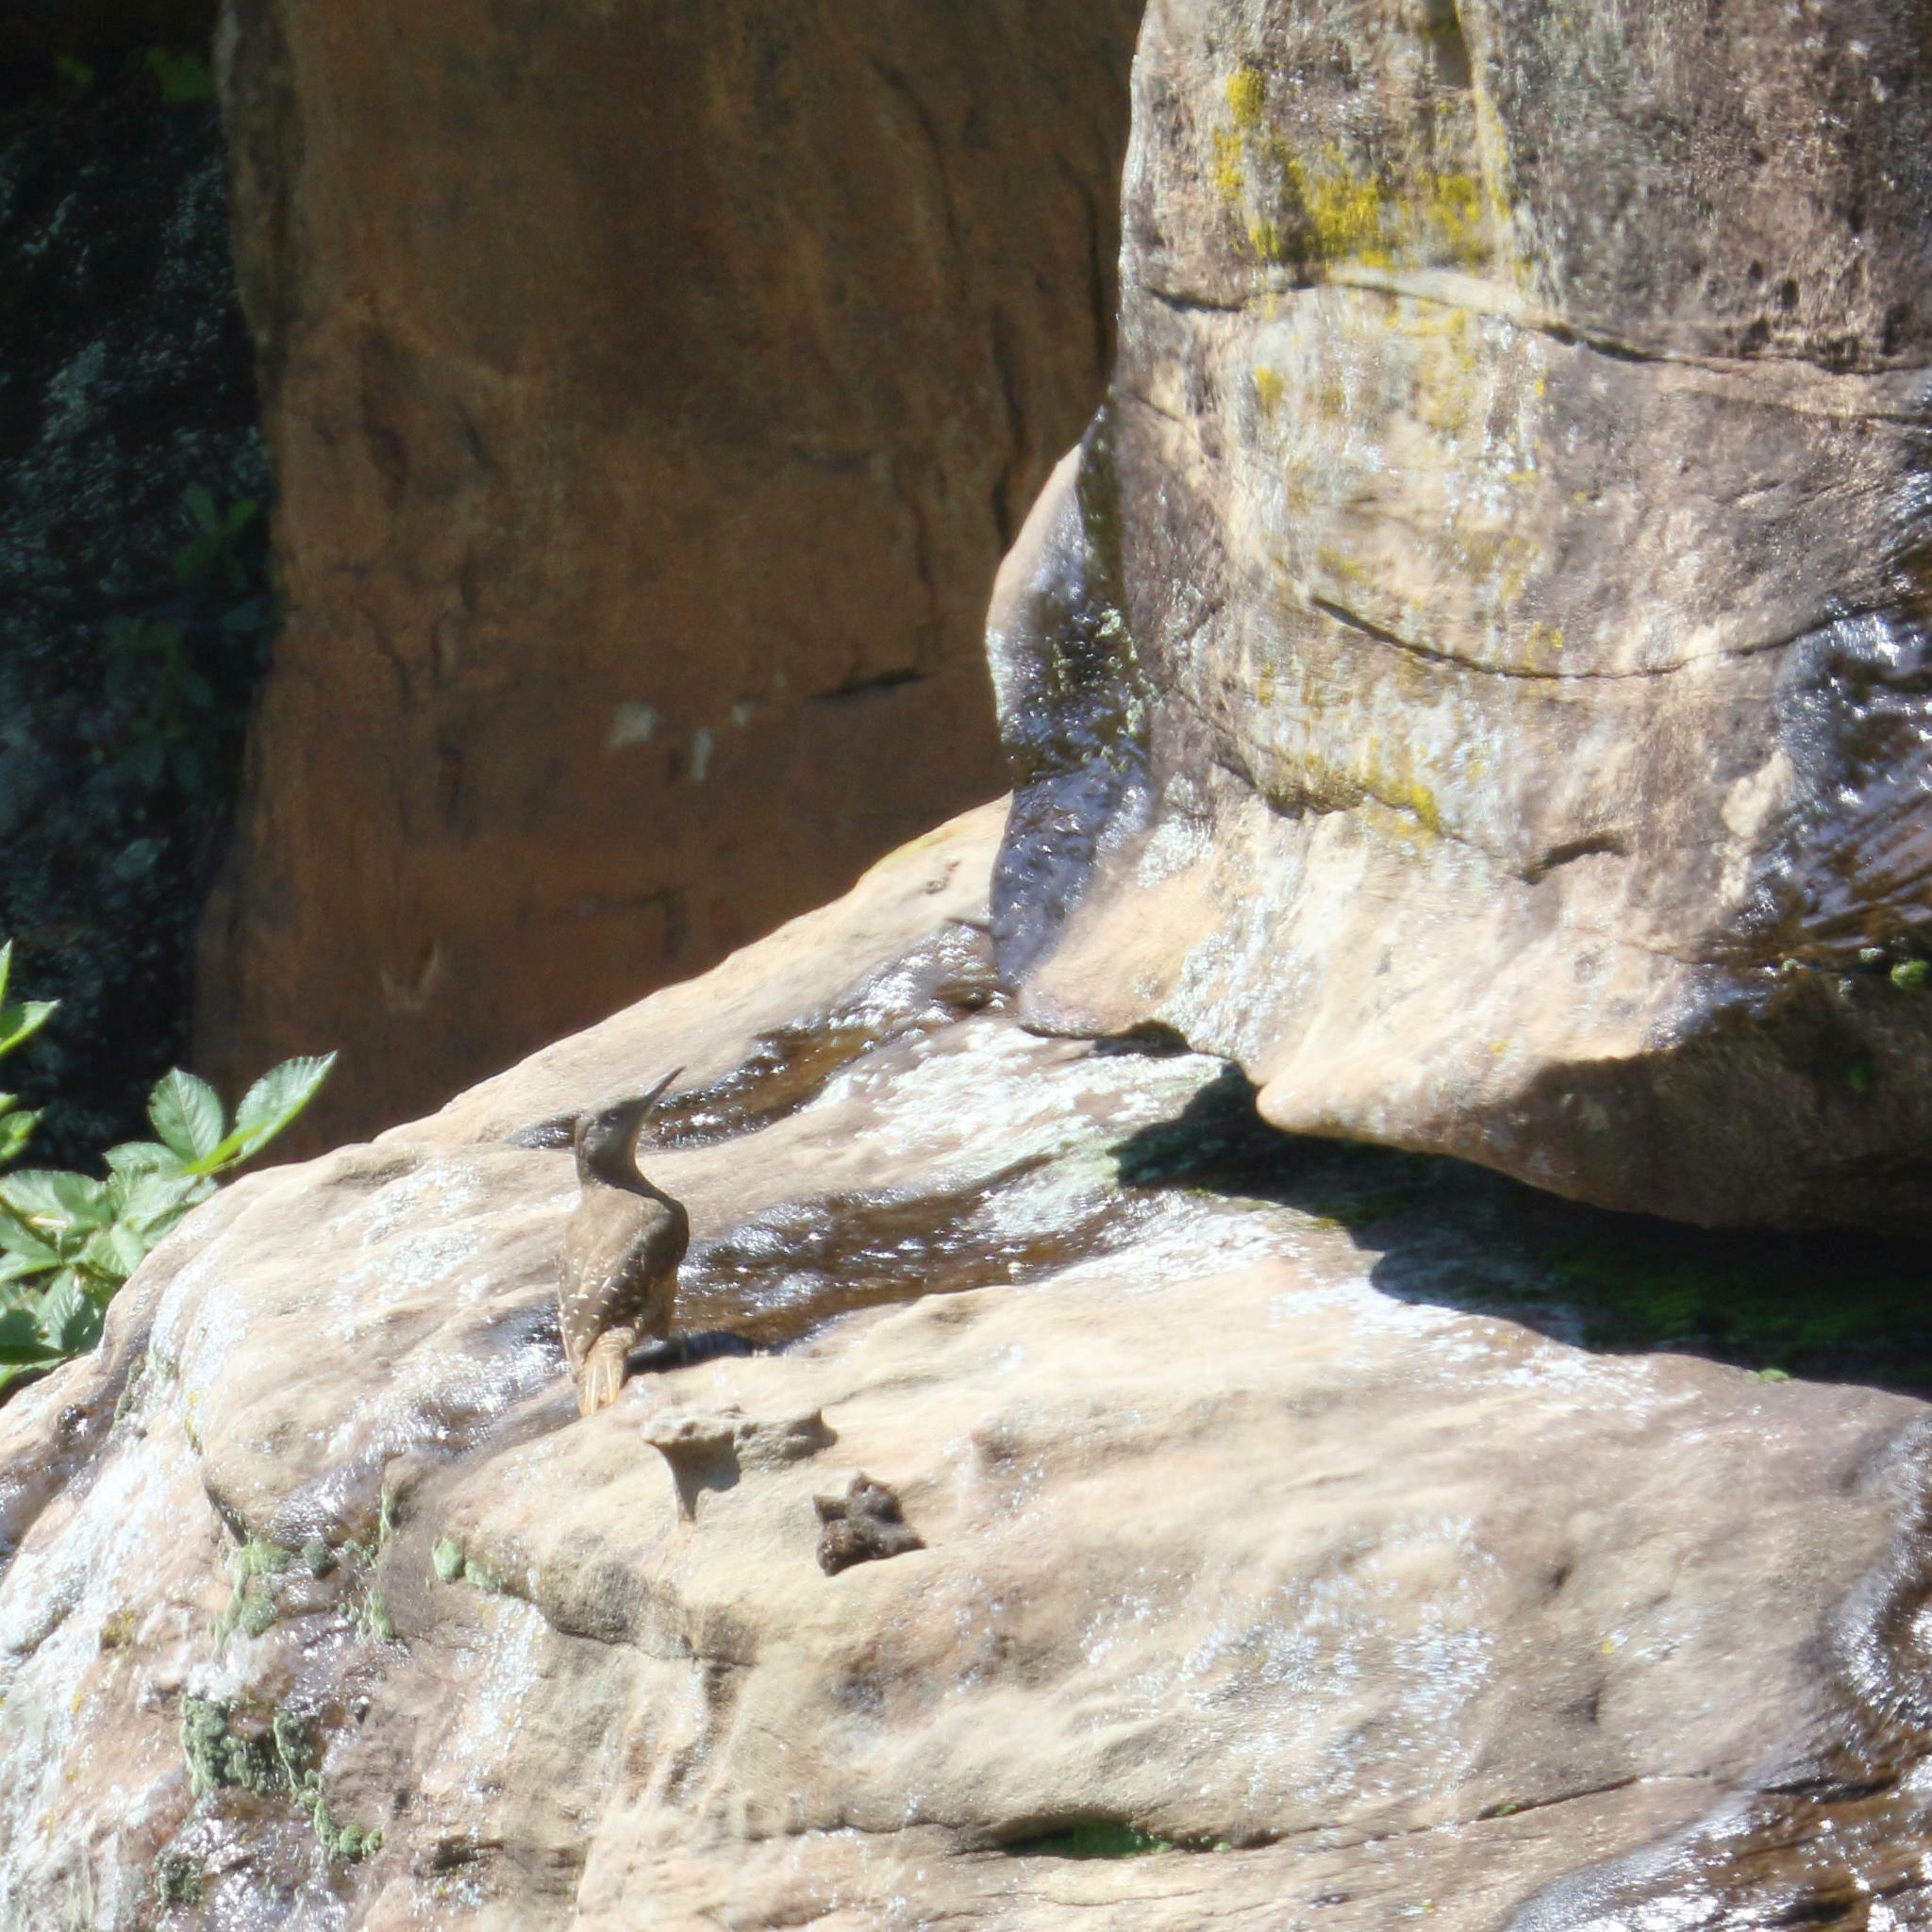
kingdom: Animalia
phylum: Chordata
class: Aves
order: Piciformes
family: Picidae
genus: Geocolaptes
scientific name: Geocolaptes olivaceus
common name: Ground woodpecker
